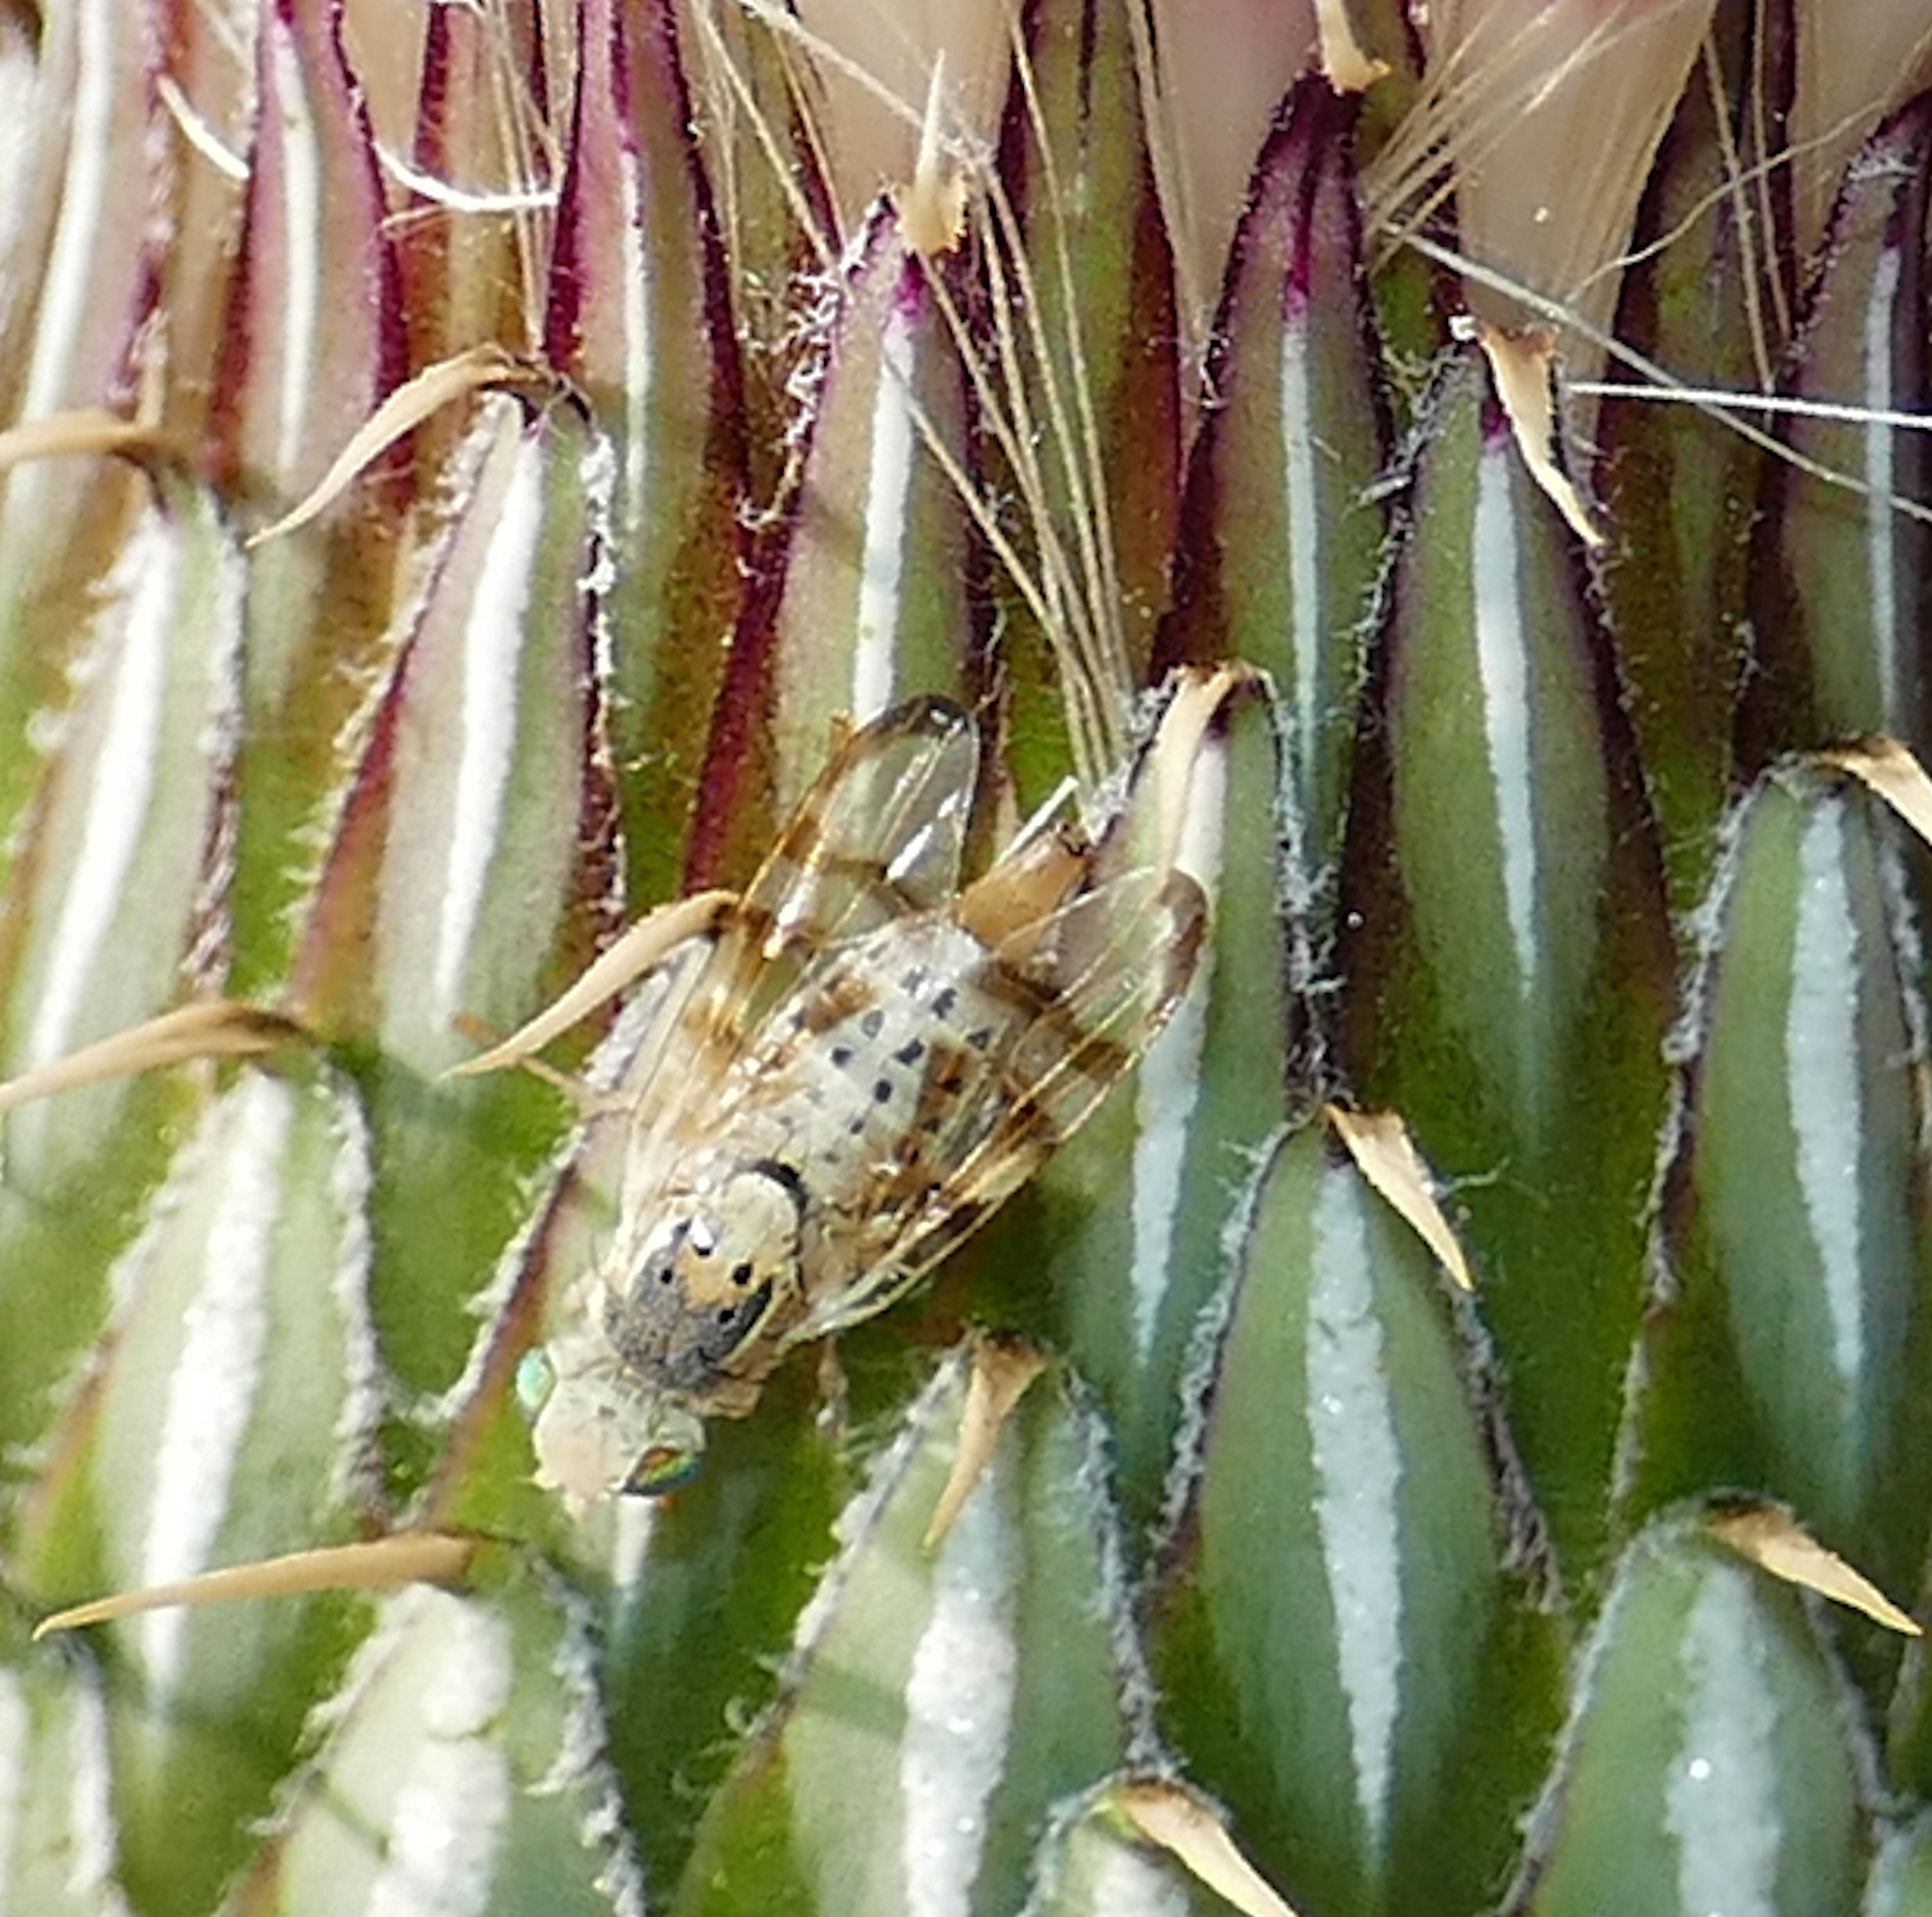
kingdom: Animalia
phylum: Arthropoda
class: Insecta
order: Diptera
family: Tephritidae
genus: Terellia
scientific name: Terellia palposa
